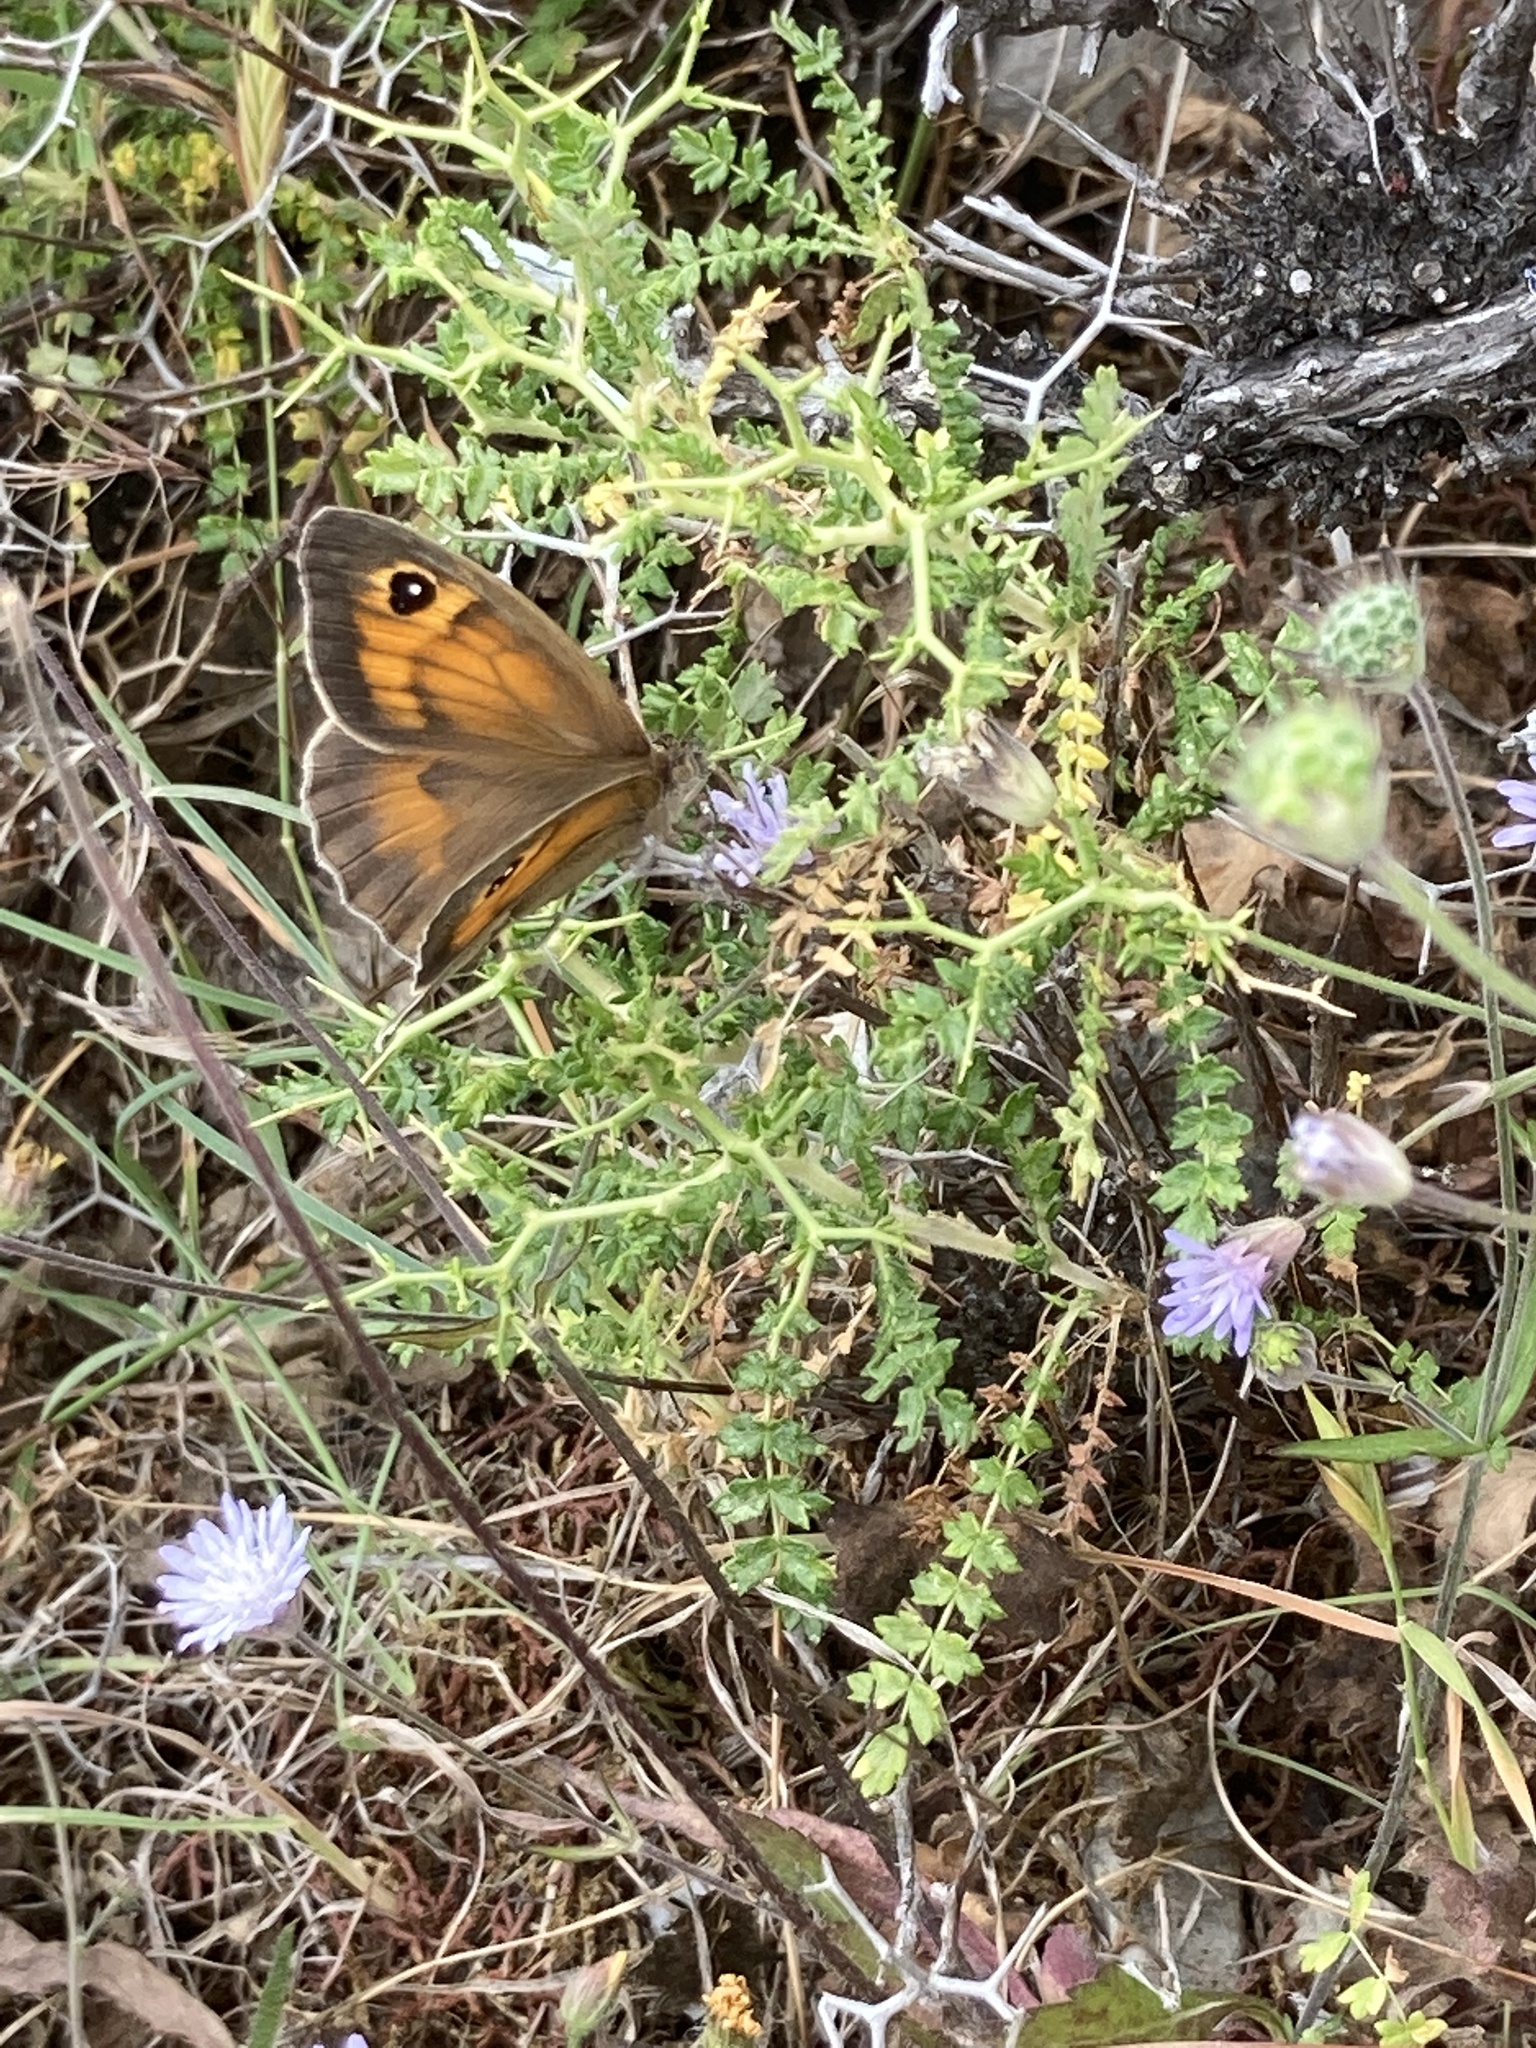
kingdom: Plantae
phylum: Tracheophyta
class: Magnoliopsida
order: Rosales
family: Rosaceae
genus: Sarcopoterium
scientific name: Sarcopoterium spinosum
